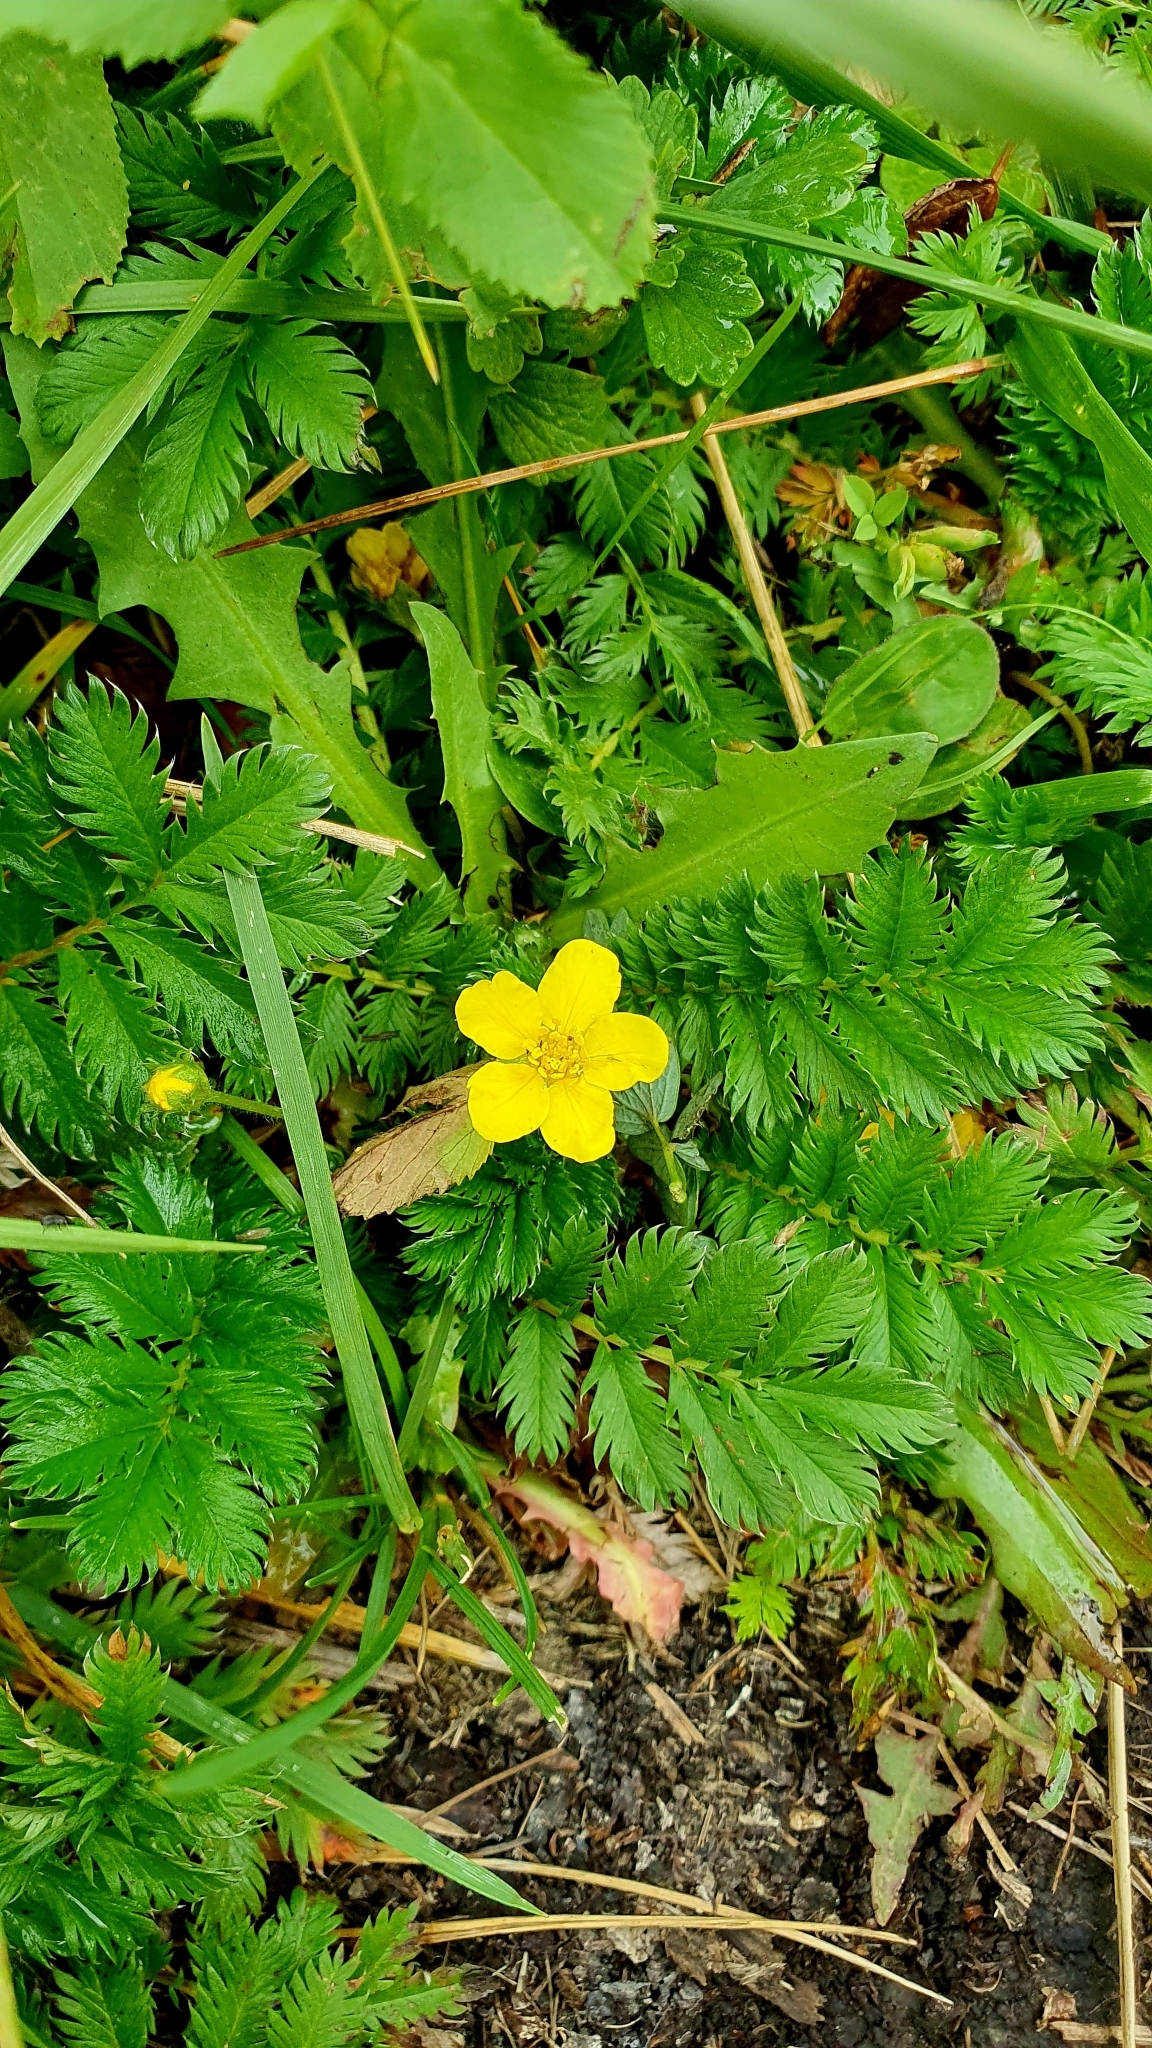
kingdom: Plantae
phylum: Tracheophyta
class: Magnoliopsida
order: Rosales
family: Rosaceae
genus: Argentina
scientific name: Argentina anserina
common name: Common silverweed
